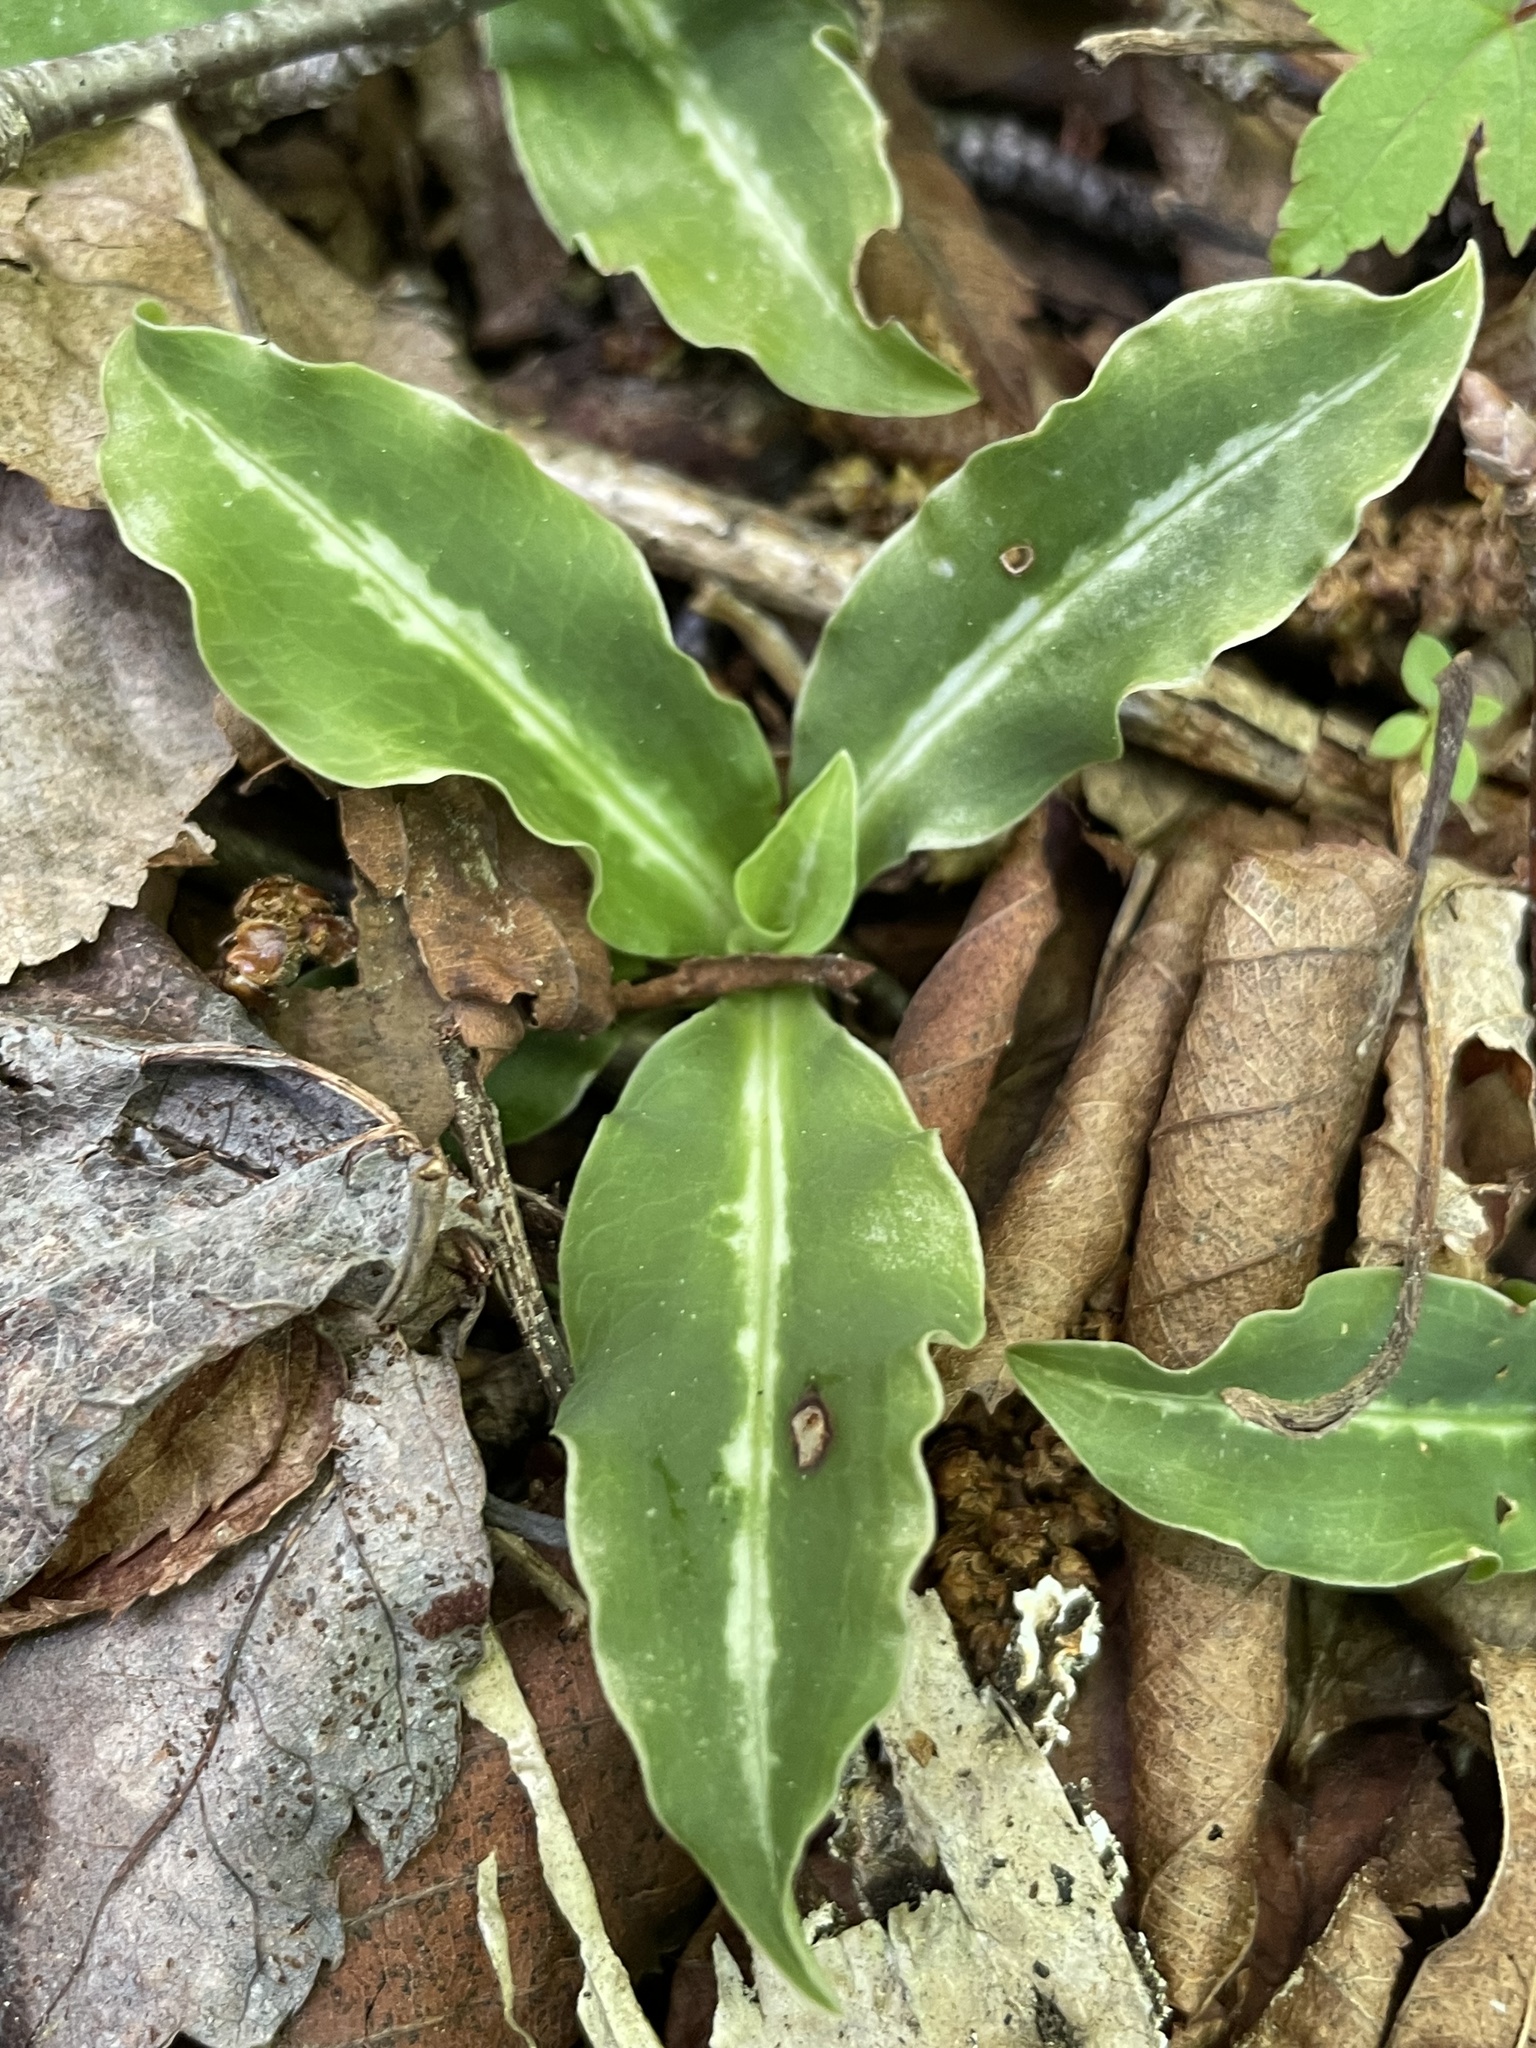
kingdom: Plantae
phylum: Tracheophyta
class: Liliopsida
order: Asparagales
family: Orchidaceae
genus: Goodyera
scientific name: Goodyera oblongifolia
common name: Giant rattlesnake-plantain
